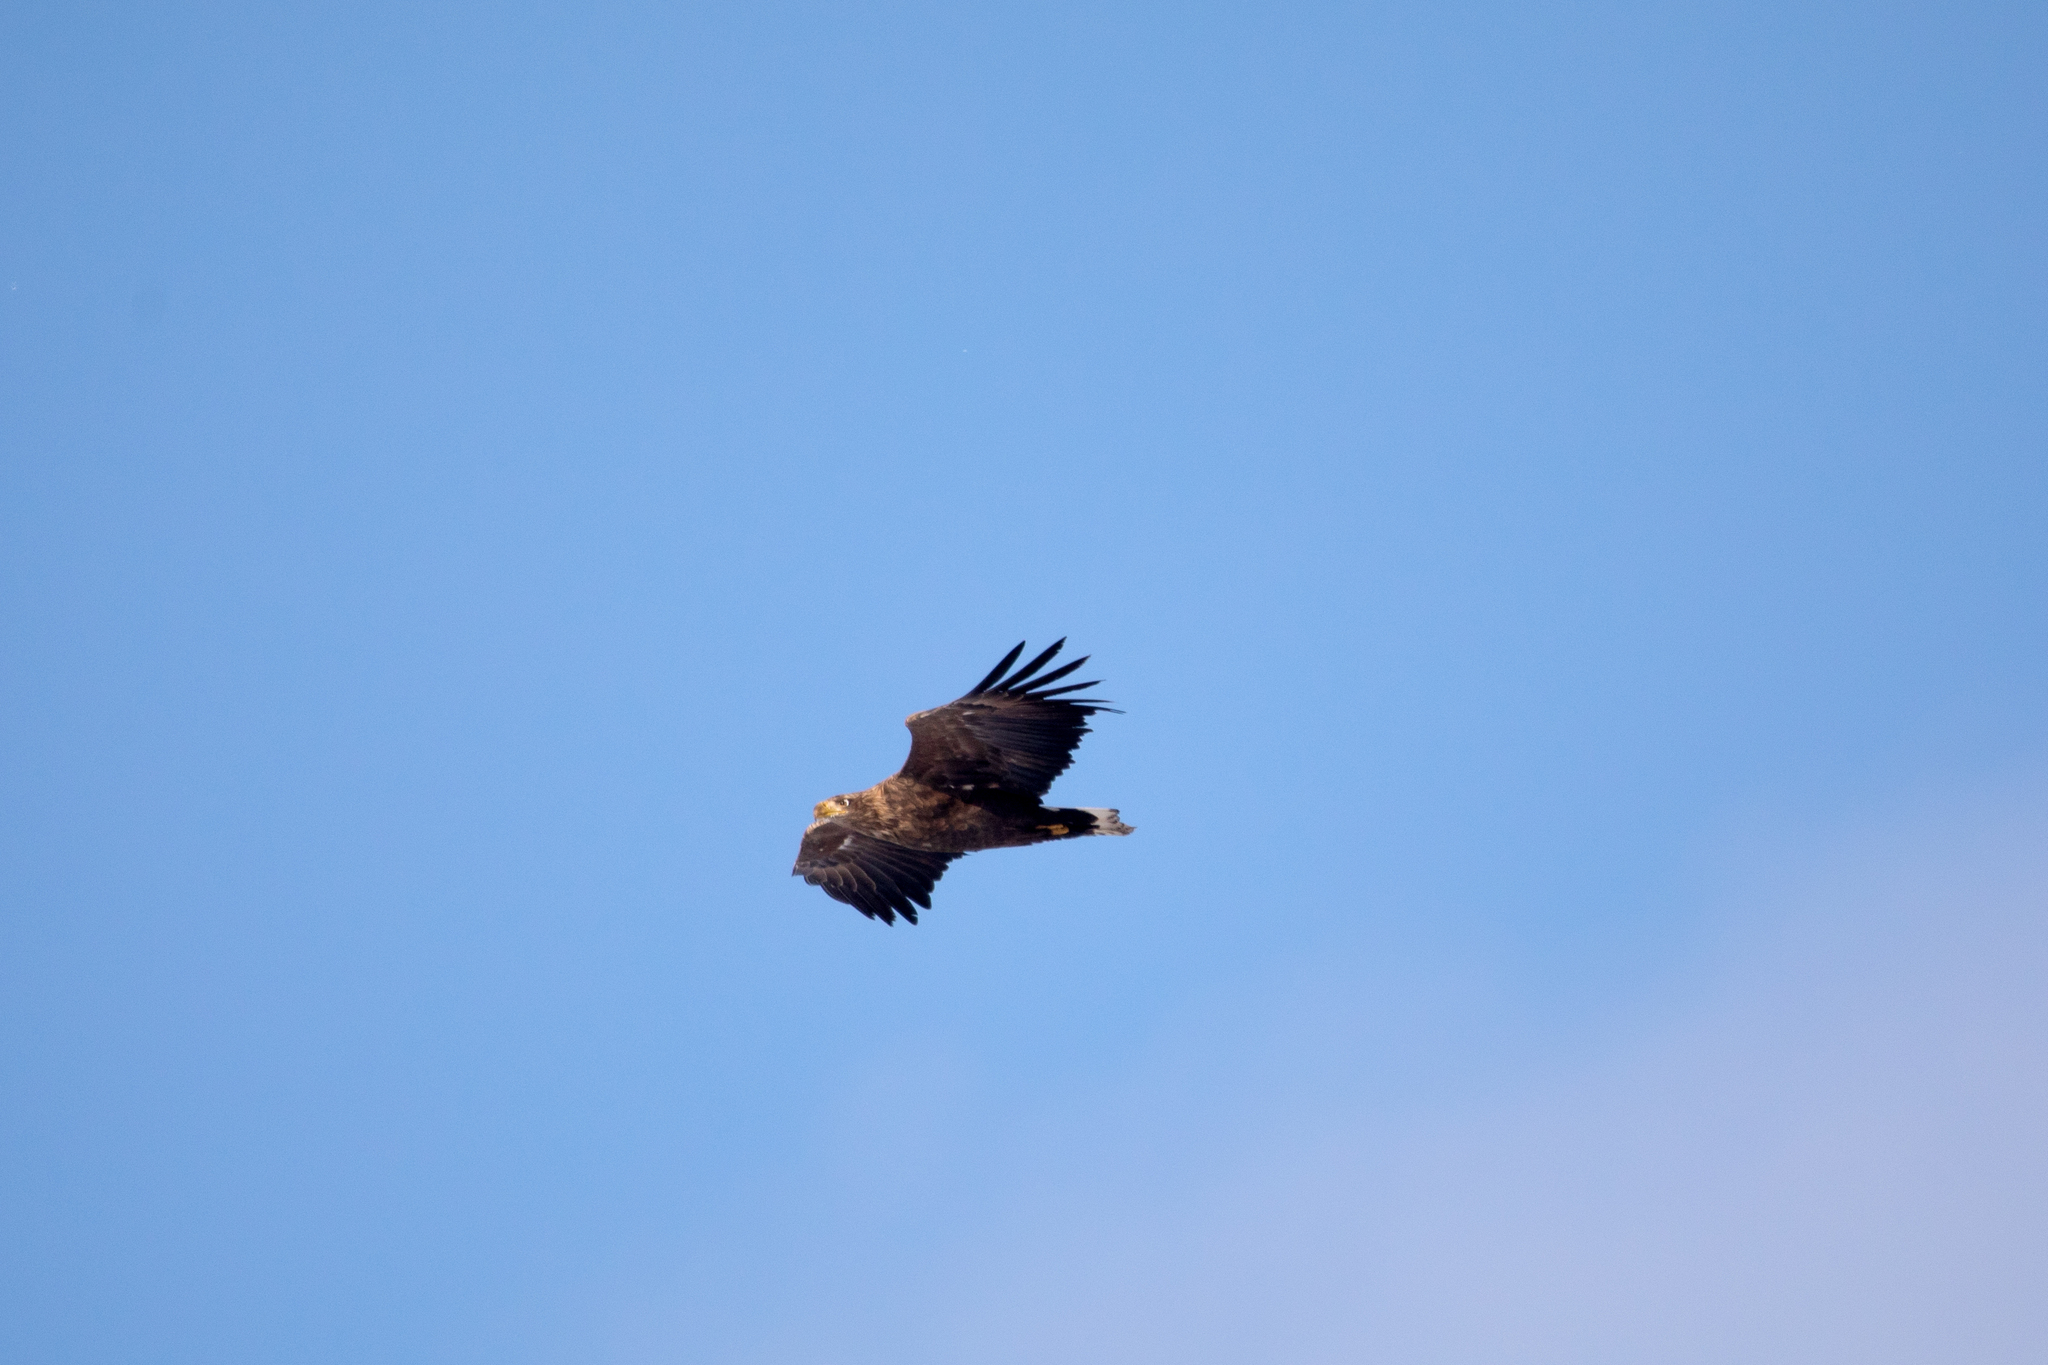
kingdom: Animalia
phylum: Chordata
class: Aves
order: Accipitriformes
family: Accipitridae
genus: Haliaeetus
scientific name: Haliaeetus albicilla
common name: White-tailed eagle
